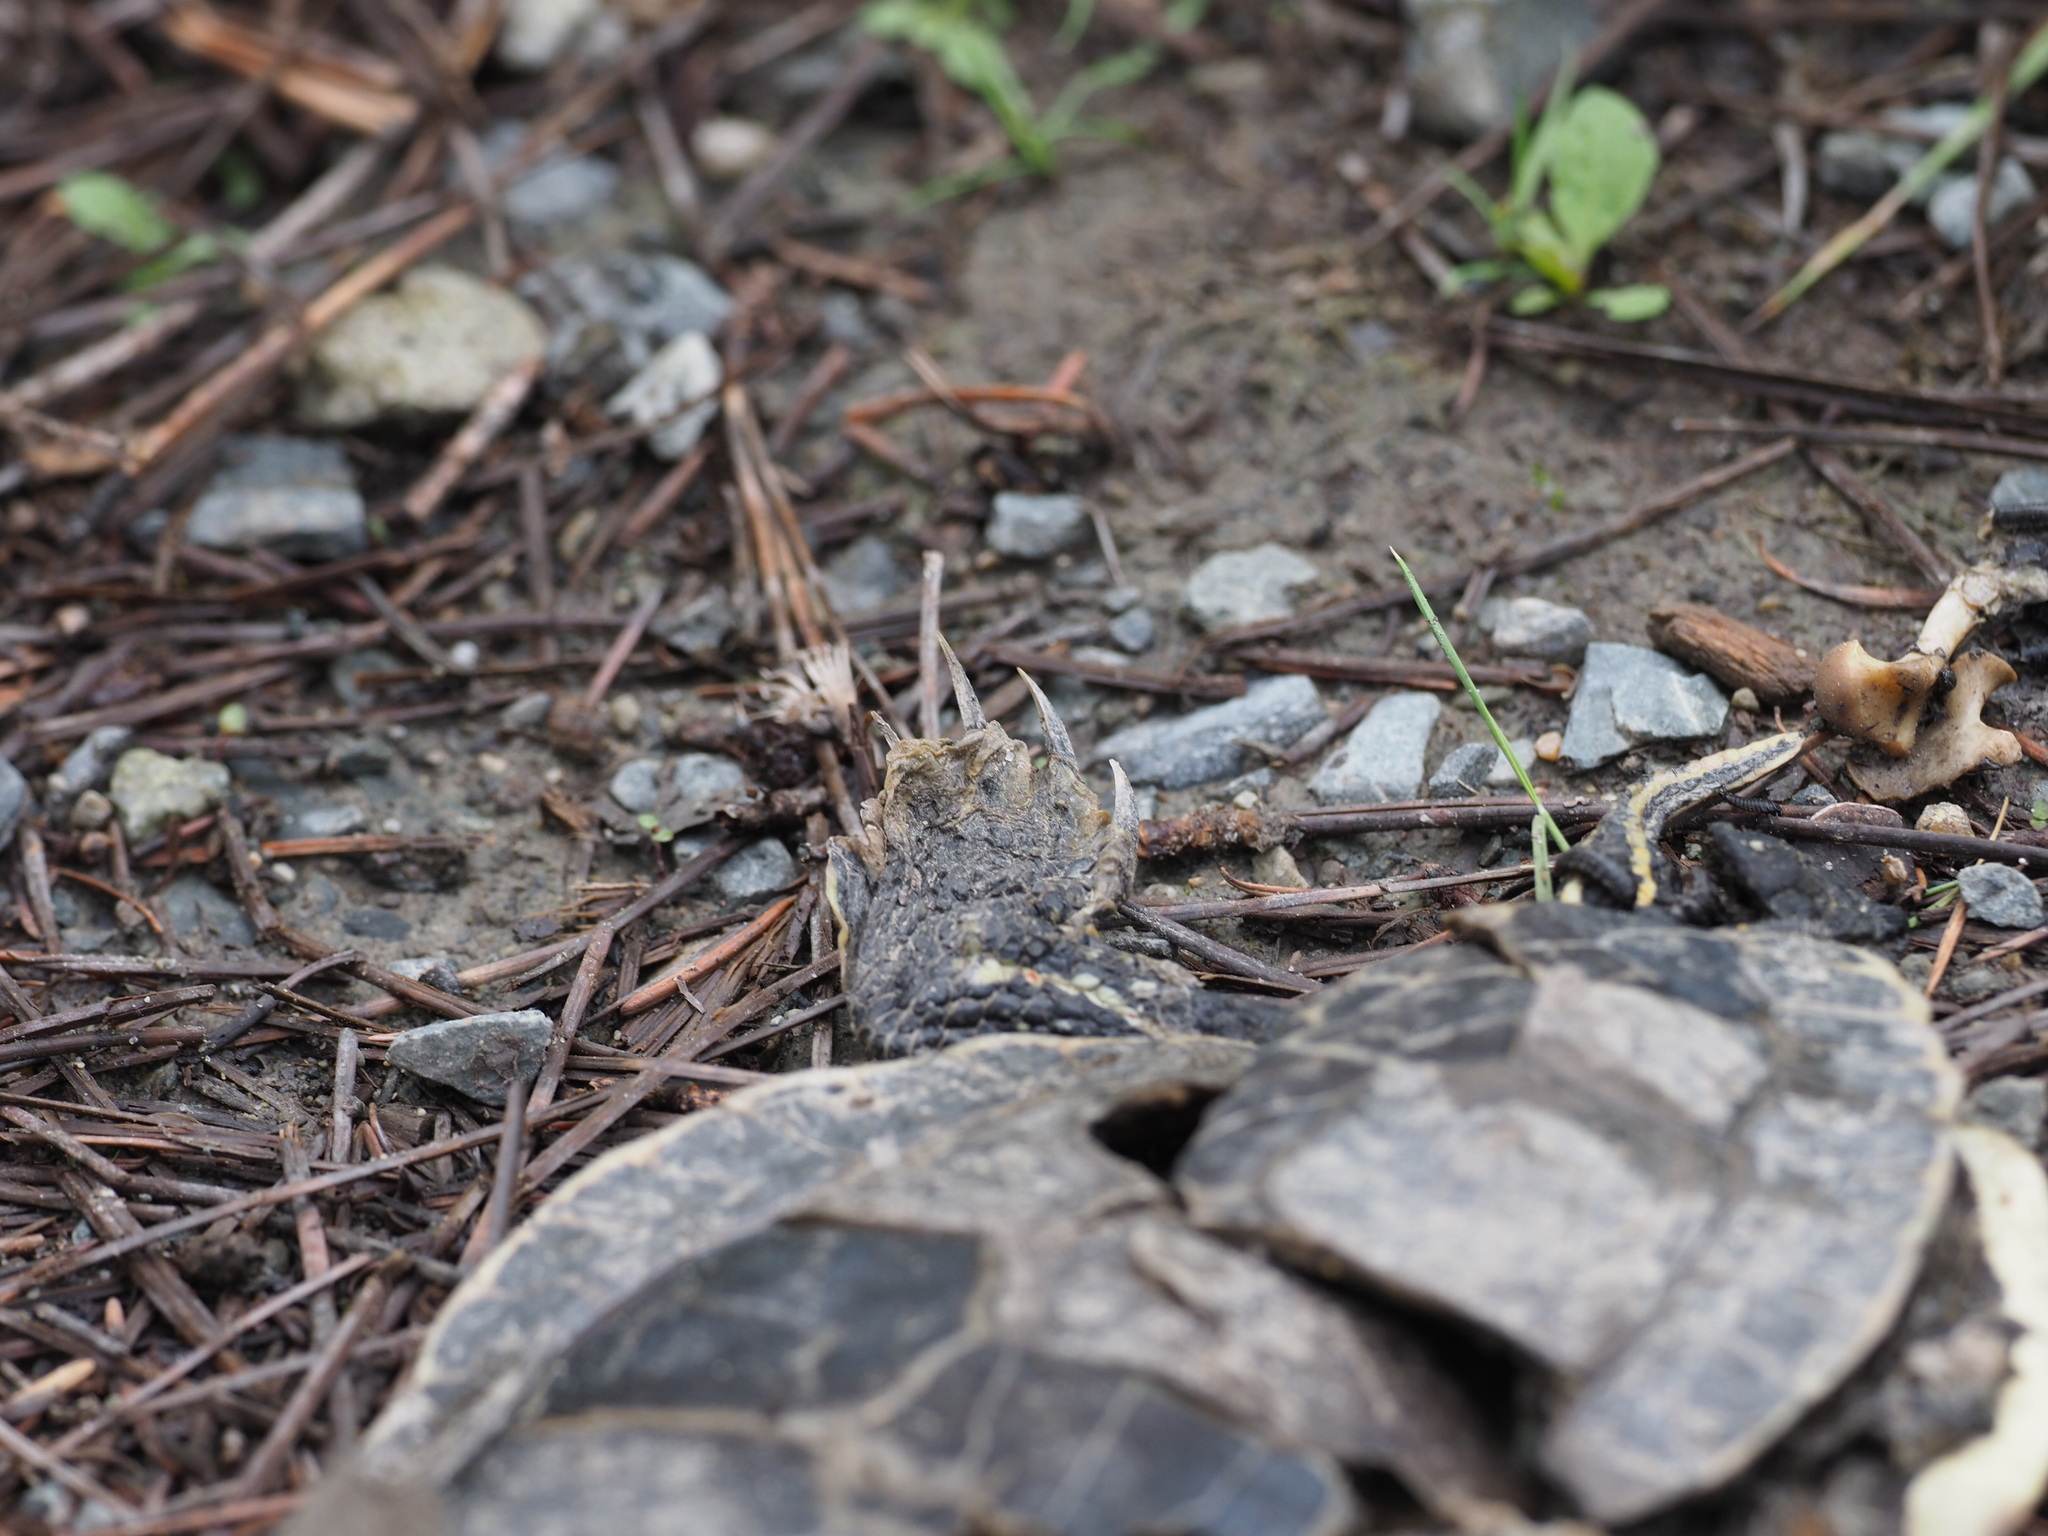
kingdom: Animalia
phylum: Chordata
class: Testudines
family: Emydidae
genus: Chrysemys
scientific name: Chrysemys picta
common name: Painted turtle
